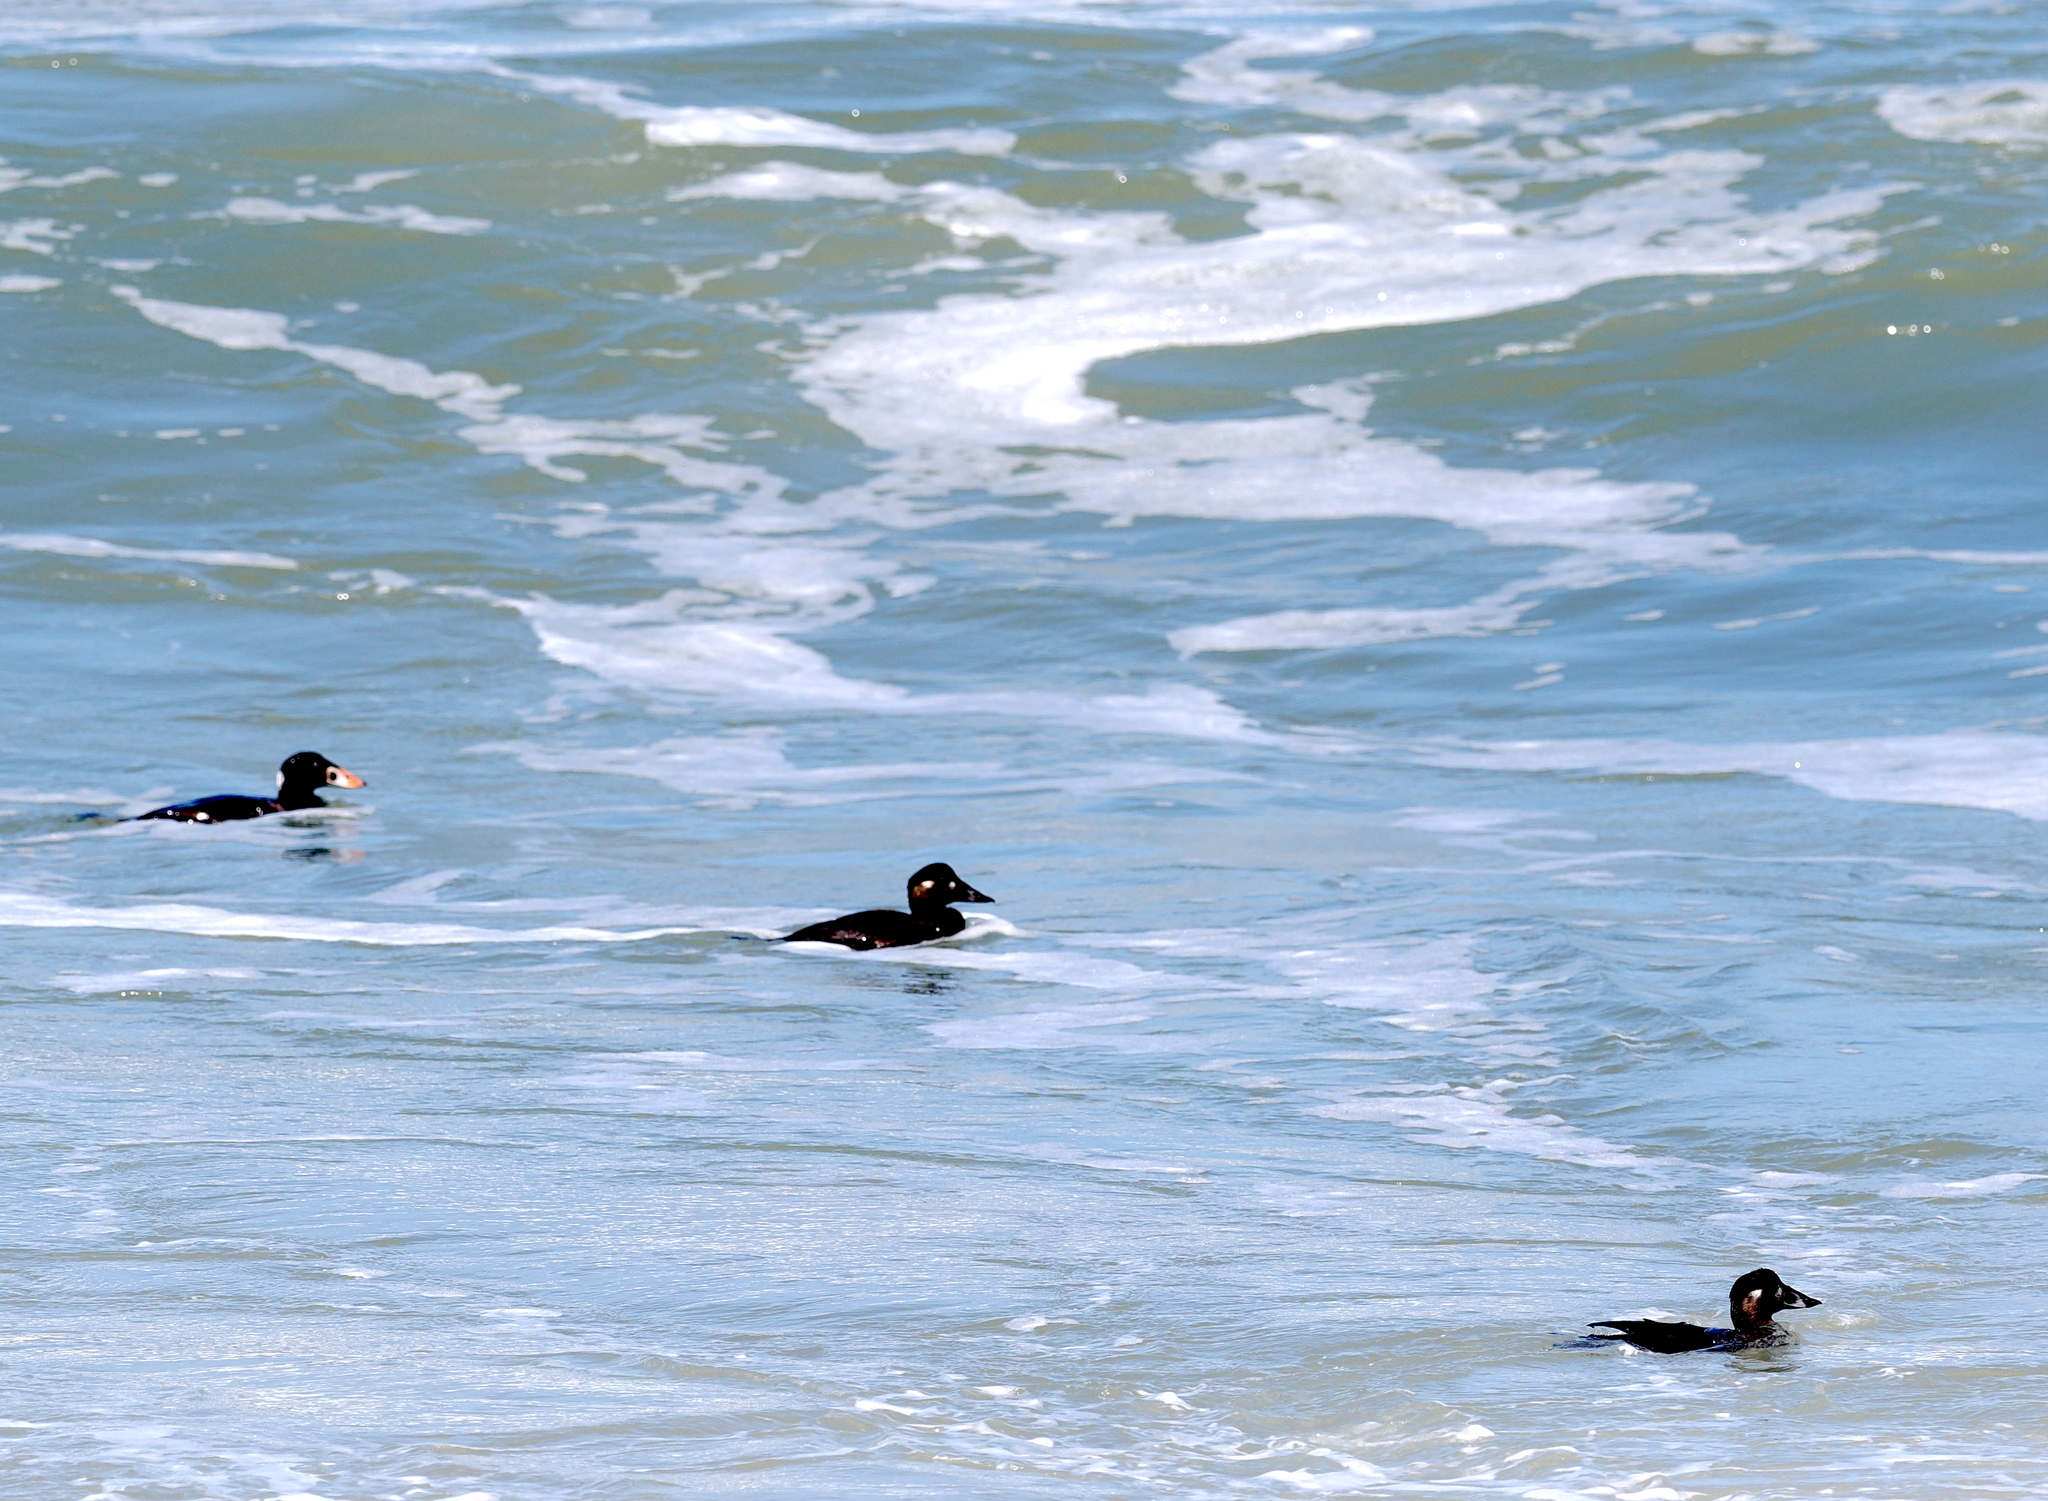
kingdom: Animalia
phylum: Chordata
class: Aves
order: Anseriformes
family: Anatidae
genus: Melanitta
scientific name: Melanitta perspicillata
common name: Surf scoter
